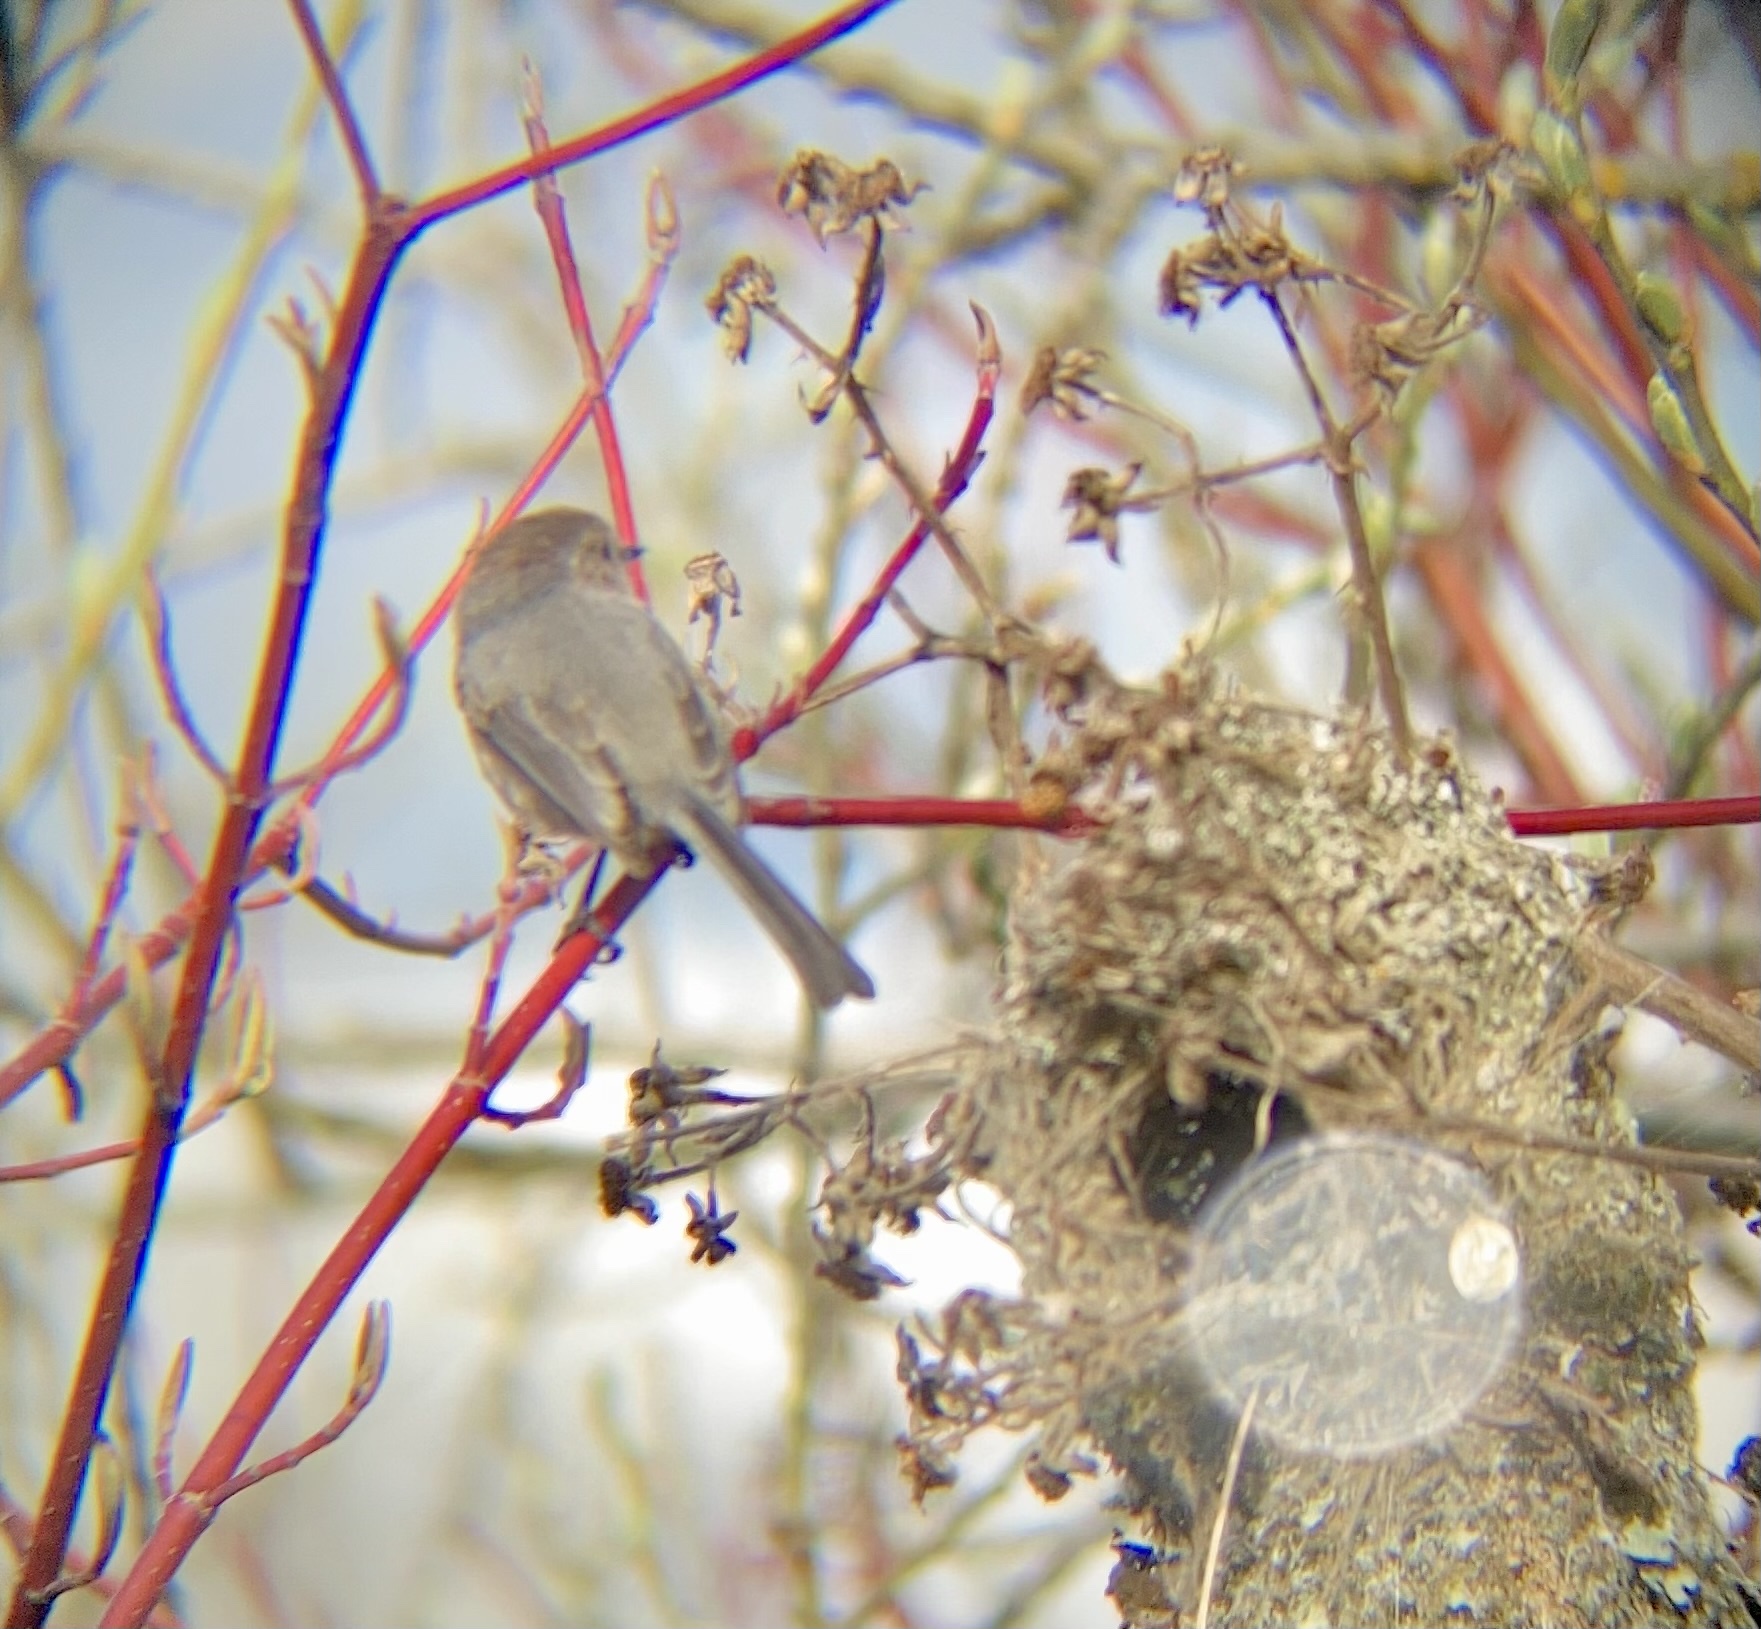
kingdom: Animalia
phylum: Chordata
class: Aves
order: Passeriformes
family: Aegithalidae
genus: Psaltriparus
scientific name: Psaltriparus minimus
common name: American bushtit
